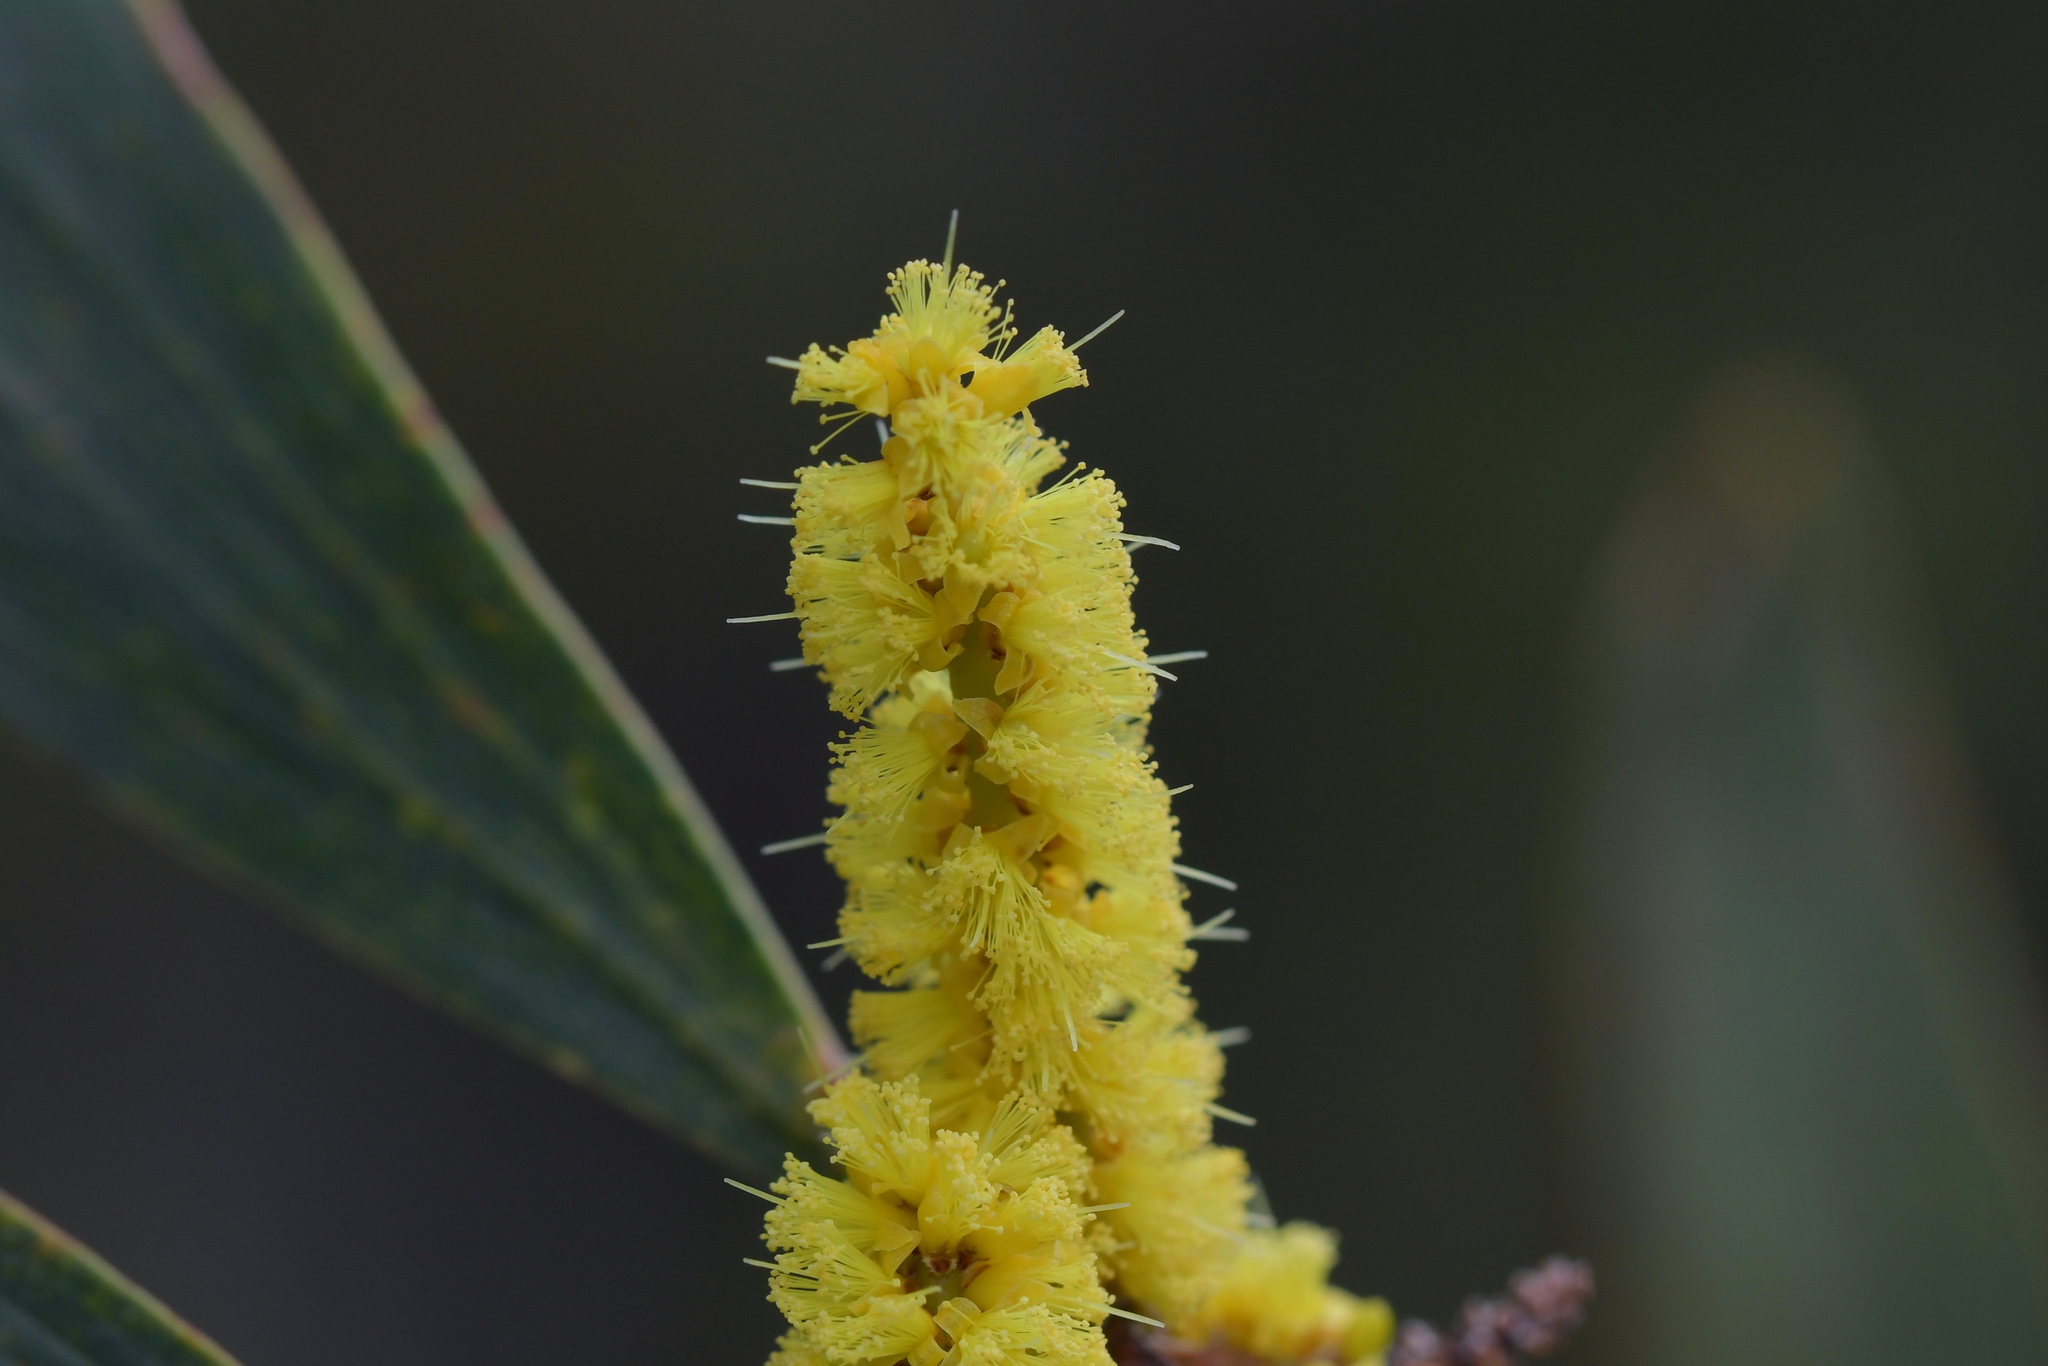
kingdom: Plantae
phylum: Tracheophyta
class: Magnoliopsida
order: Fabales
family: Fabaceae
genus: Acacia
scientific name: Acacia longifolia
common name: Sydney golden wattle
